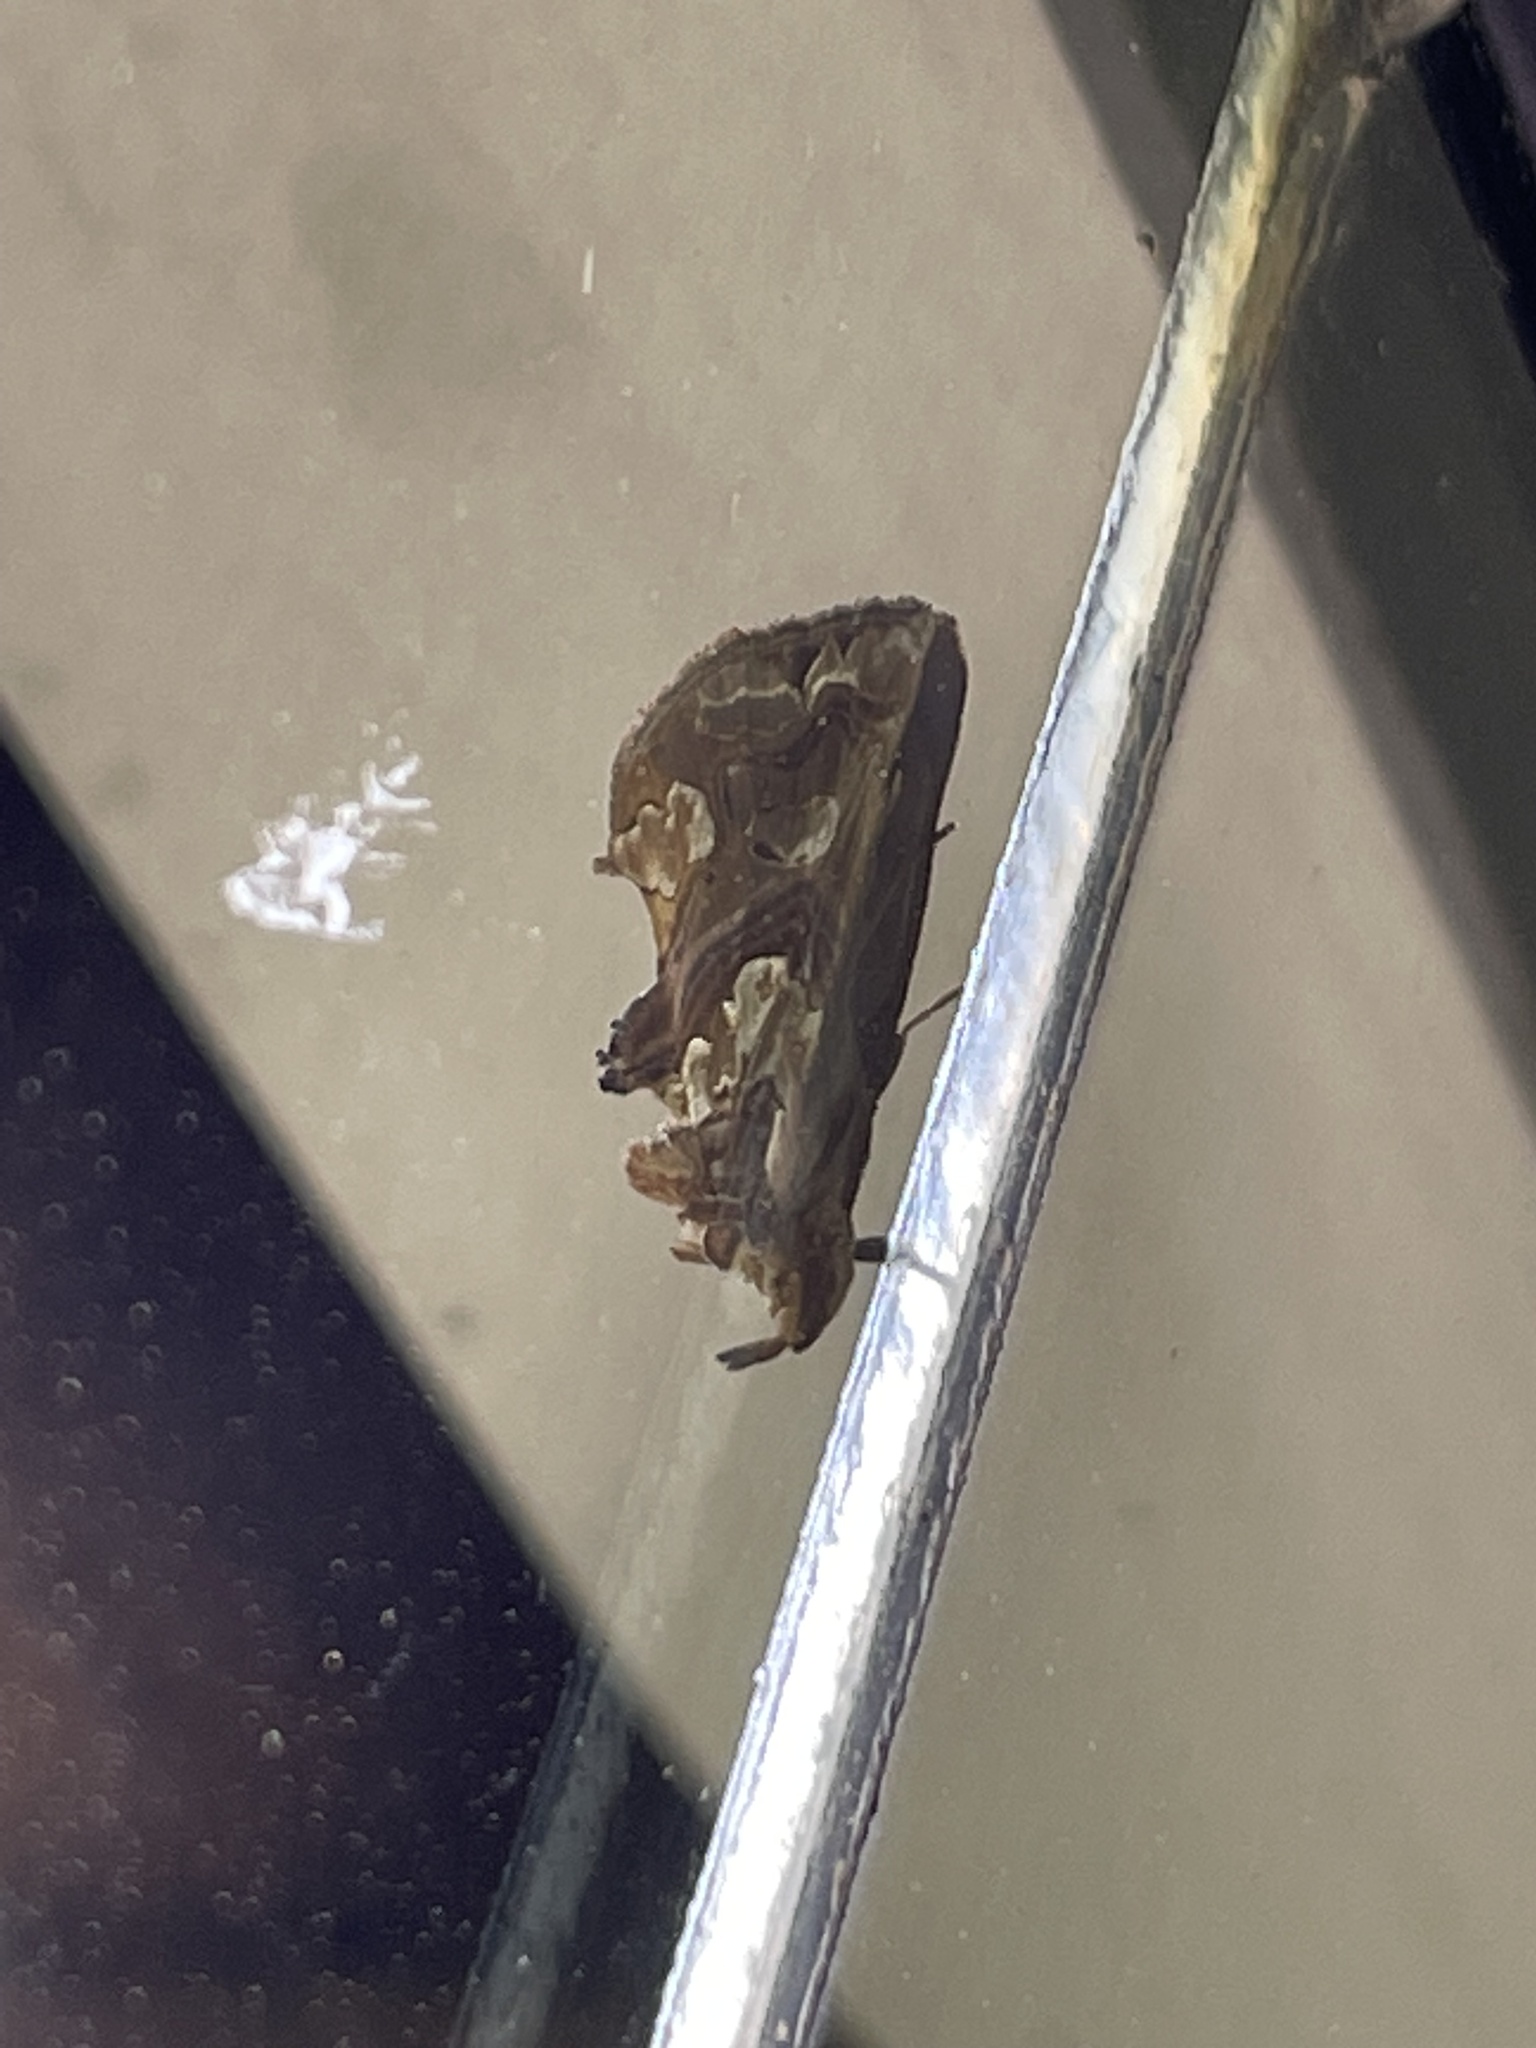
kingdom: Animalia
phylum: Arthropoda
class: Insecta
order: Lepidoptera
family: Erebidae
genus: Plusiodonta
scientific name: Plusiodonta compressipalpis
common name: Moonseed moth
